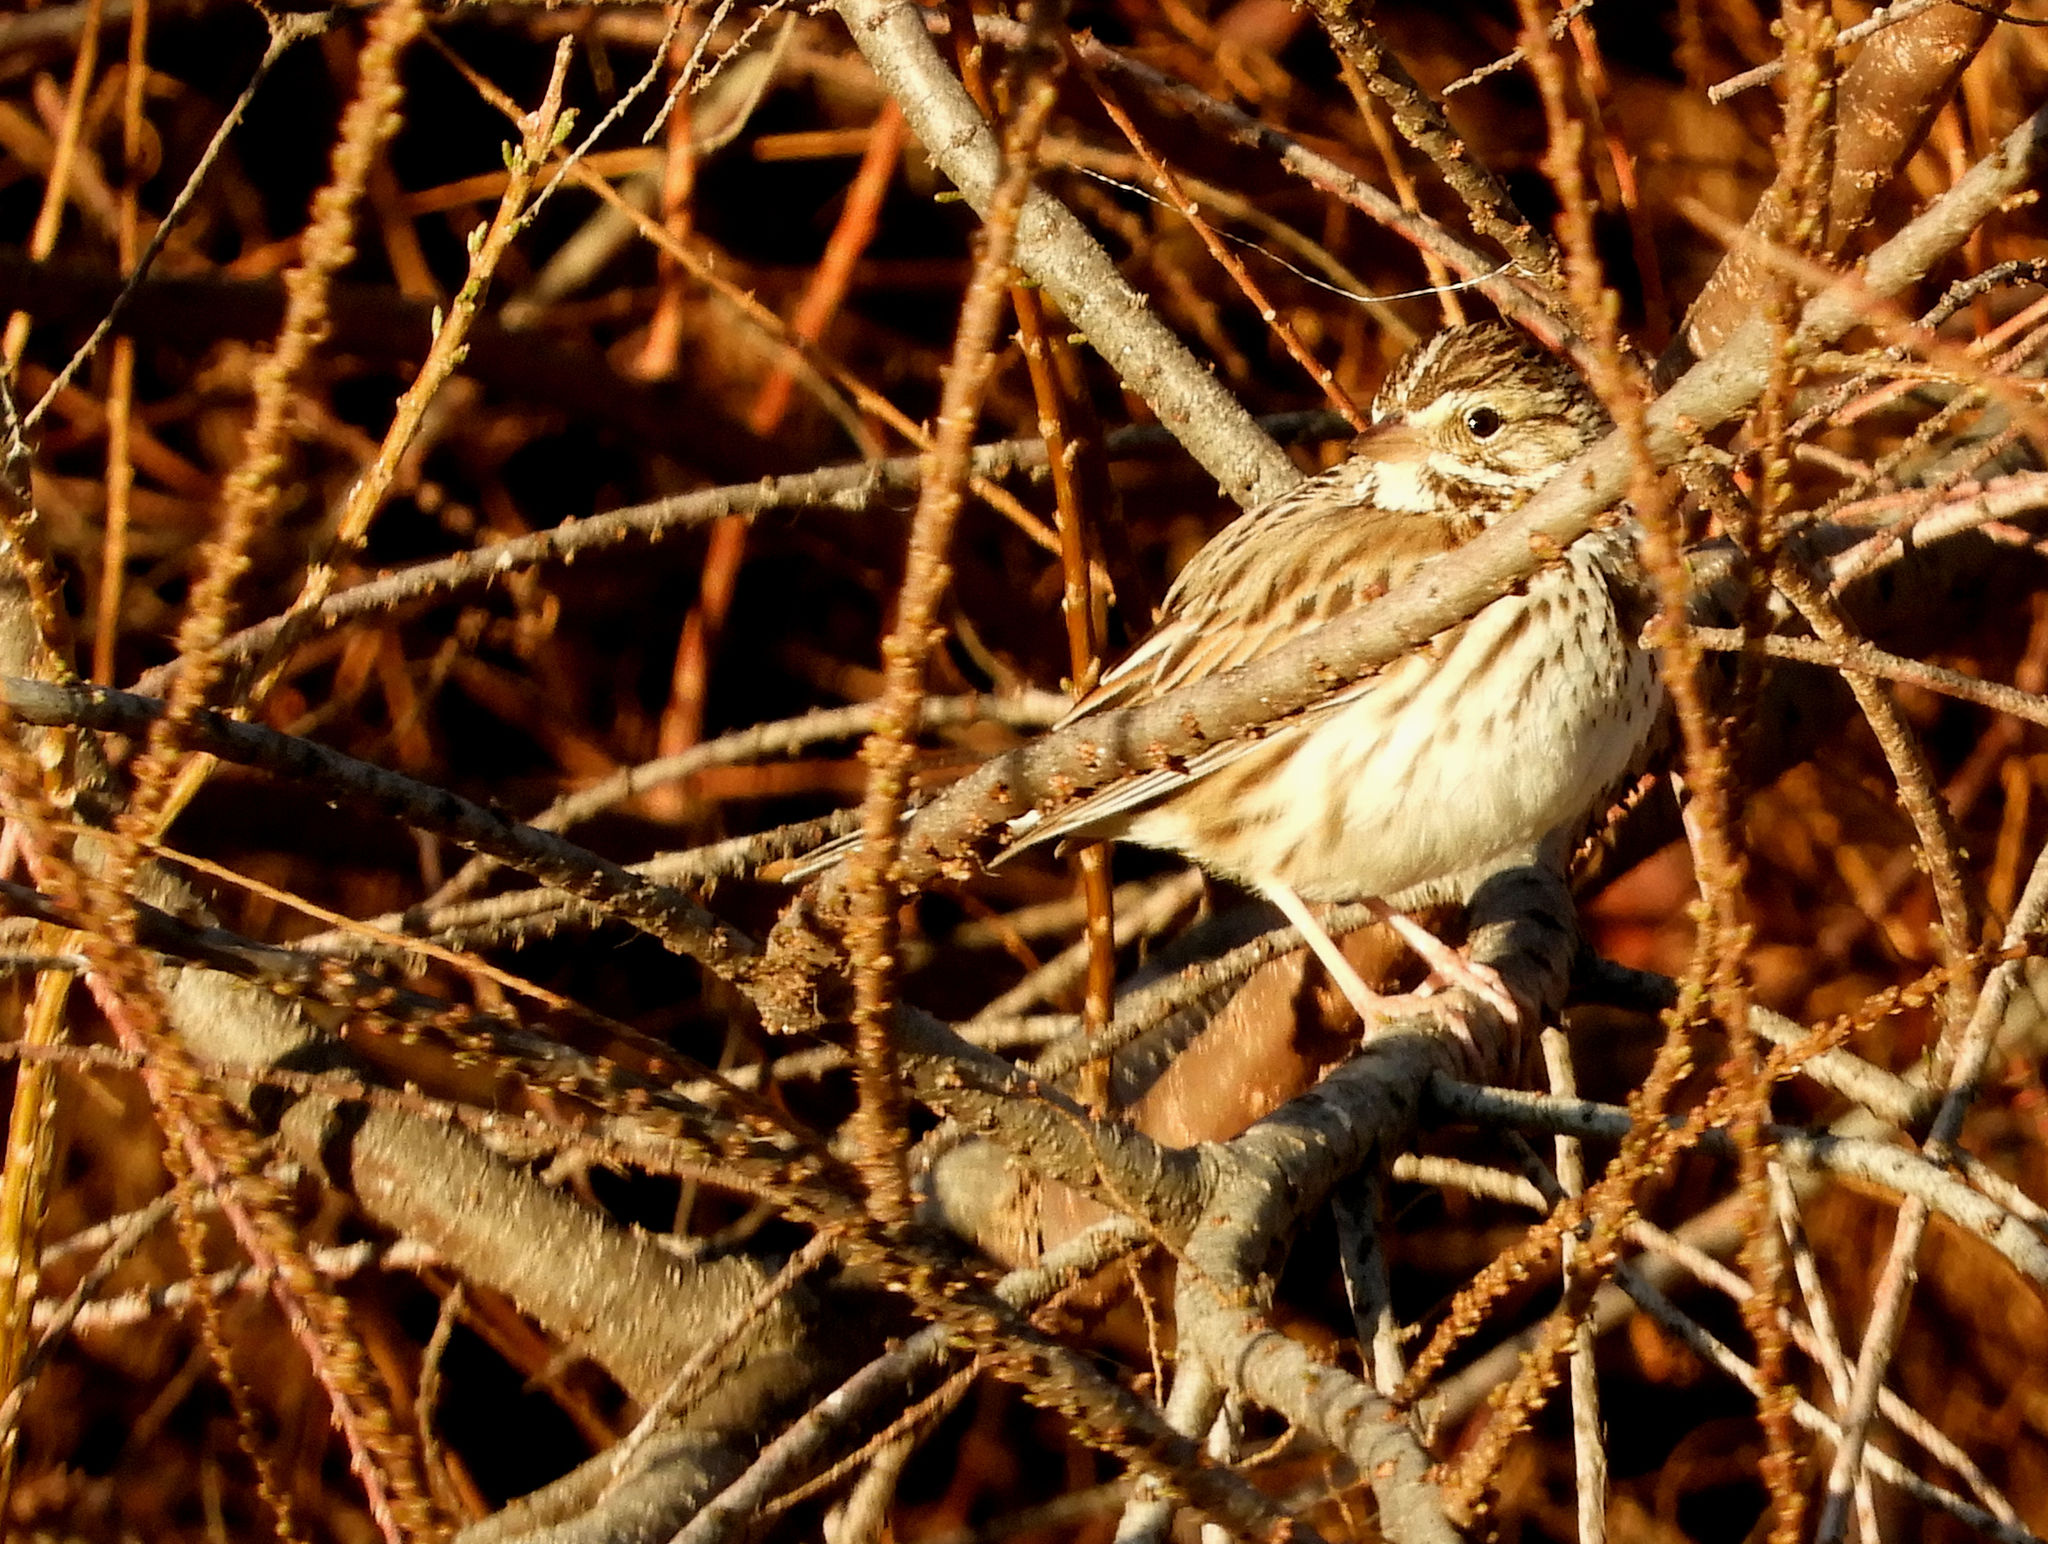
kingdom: Animalia
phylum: Chordata
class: Aves
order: Passeriformes
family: Passerellidae
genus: Passerculus
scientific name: Passerculus sandwichensis
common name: Savannah sparrow
